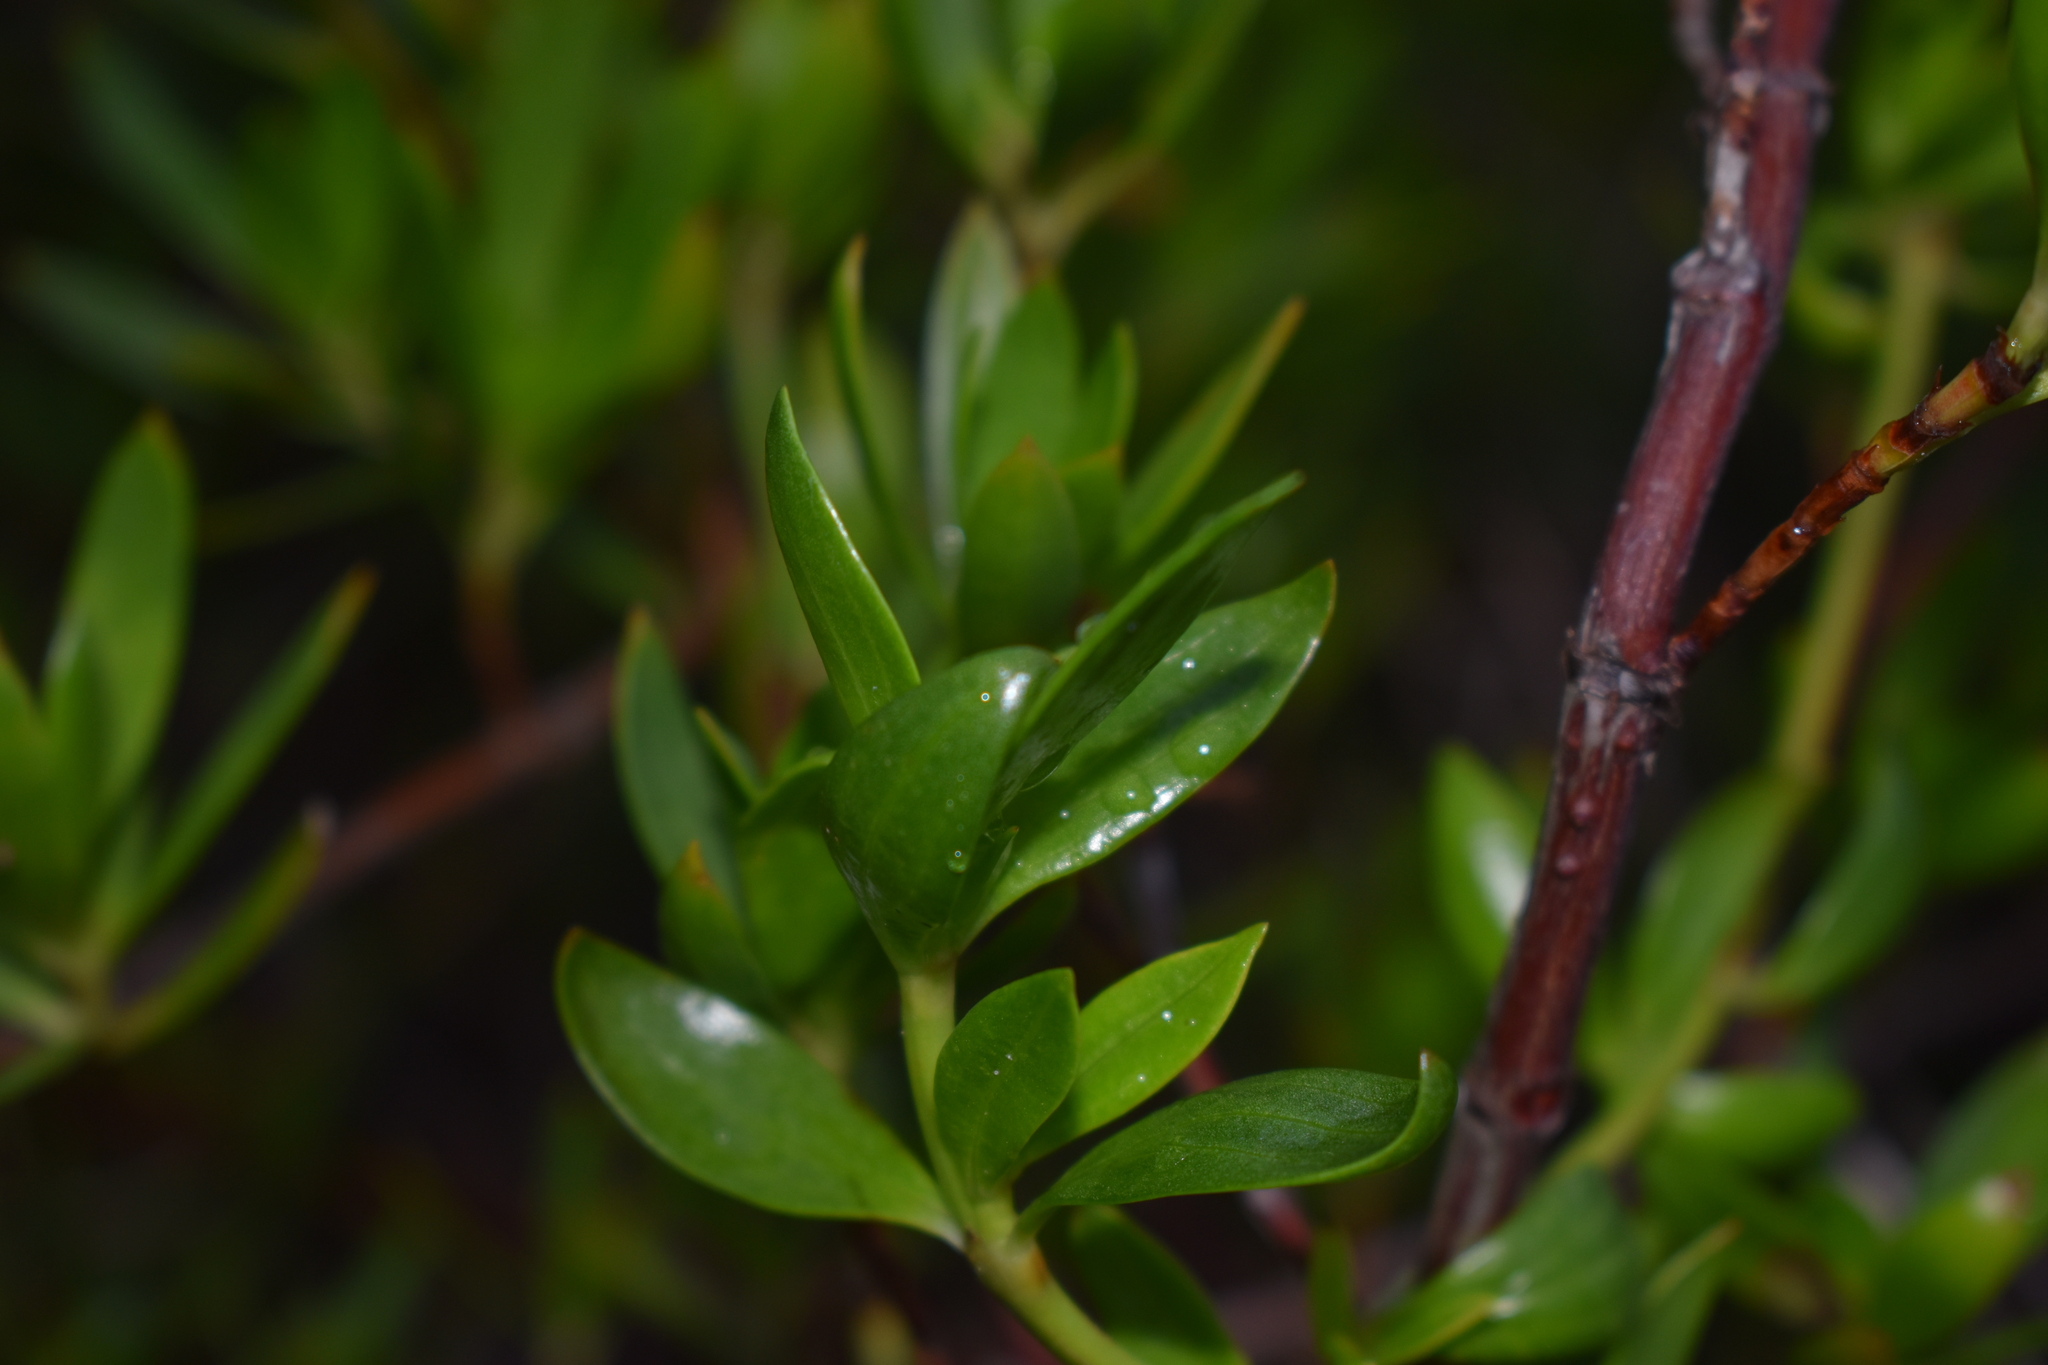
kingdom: Plantae
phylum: Tracheophyta
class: Magnoliopsida
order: Gentianales
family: Rubiaceae
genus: Ernodea
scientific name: Ernodea littoralis
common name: Beach creeper
